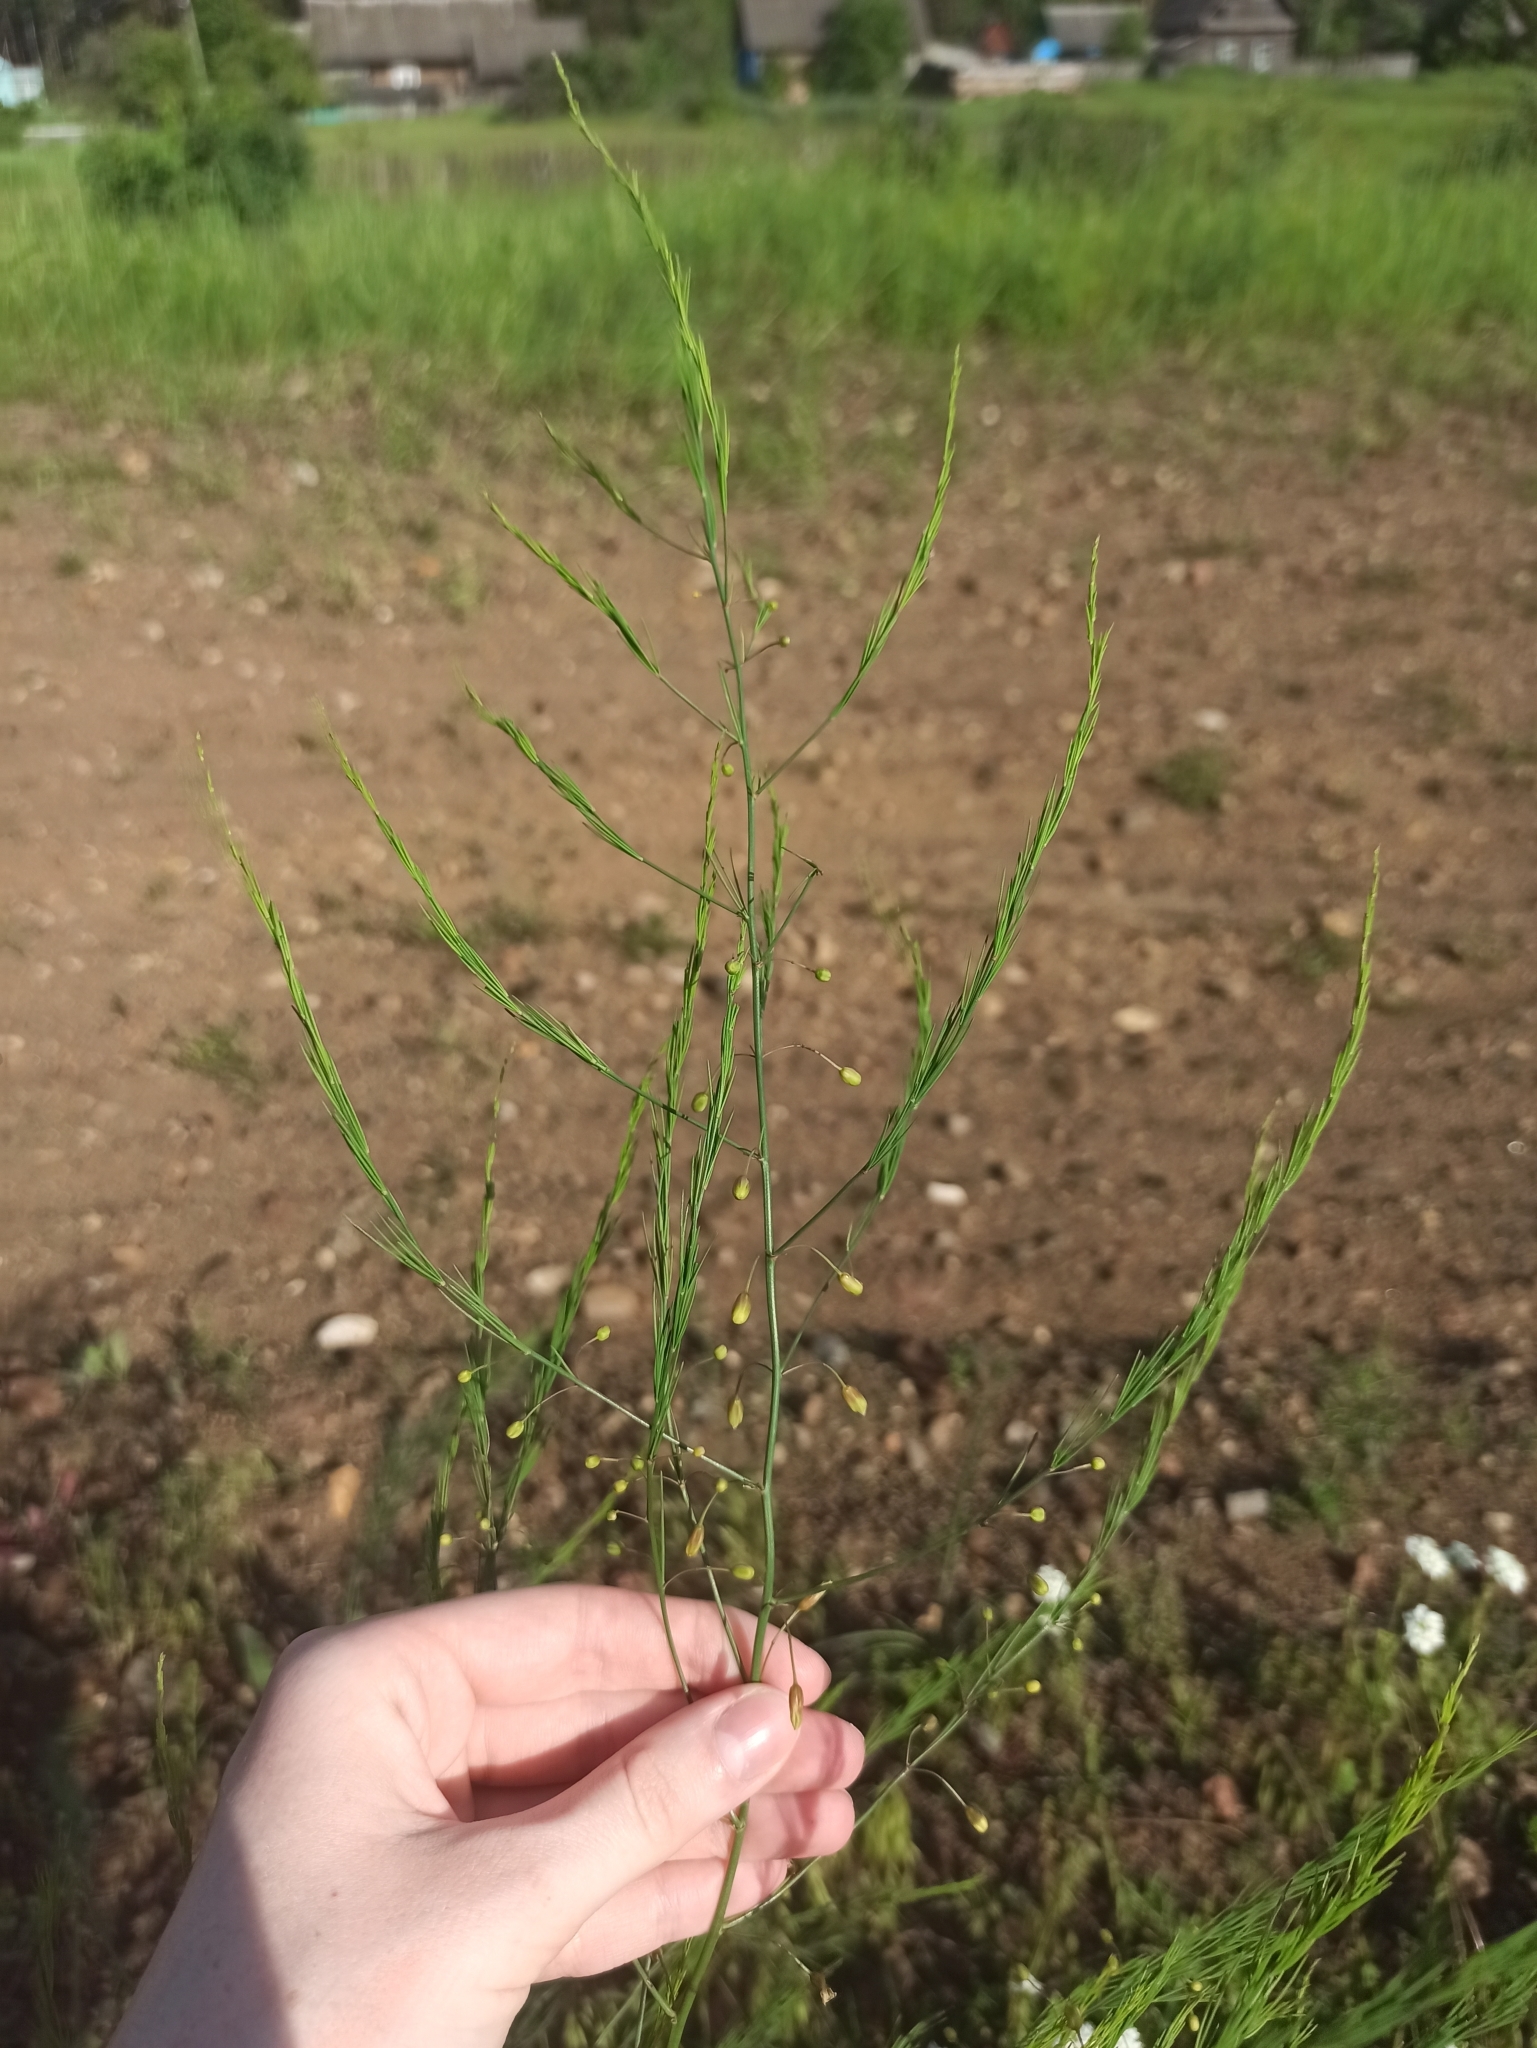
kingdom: Plantae
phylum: Tracheophyta
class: Liliopsida
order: Asparagales
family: Asparagaceae
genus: Asparagus
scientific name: Asparagus officinalis
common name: Garden asparagus
